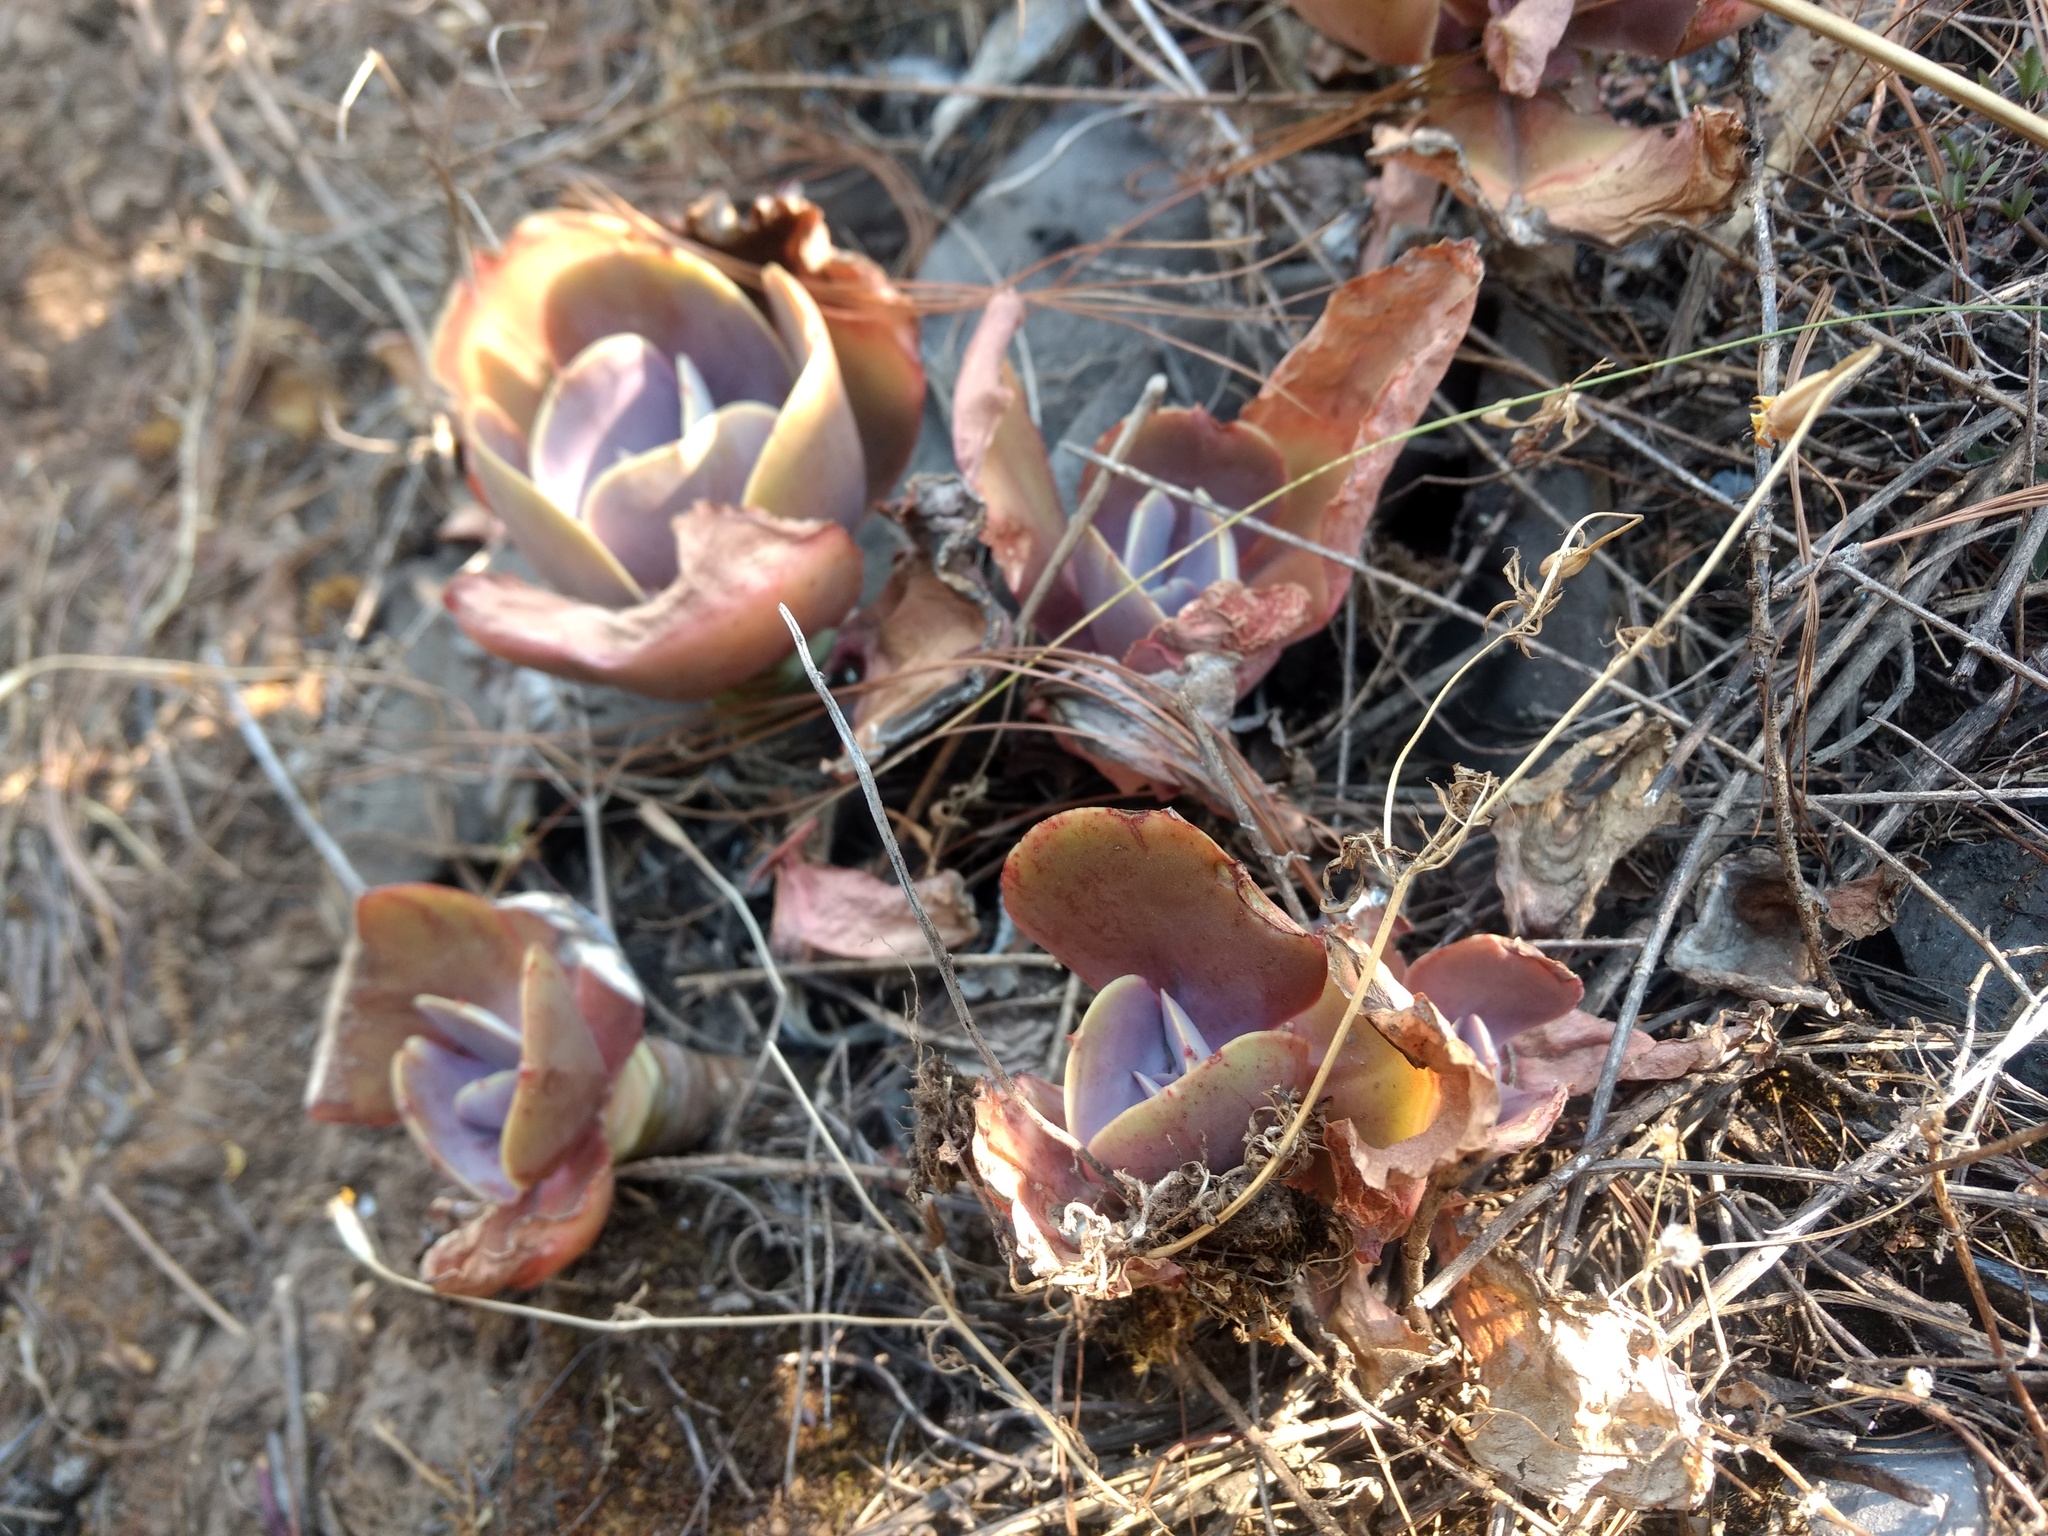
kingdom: Plantae
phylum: Tracheophyta
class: Magnoliopsida
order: Saxifragales
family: Crassulaceae
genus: Echeveria
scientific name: Echeveria gibbiflora
